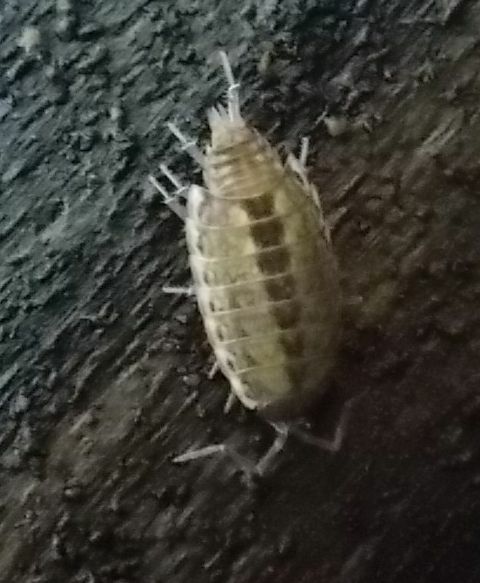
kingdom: Animalia
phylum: Arthropoda
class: Malacostraca
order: Isopoda
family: Philosciidae
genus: Philoscia
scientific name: Philoscia muscorum
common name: Common striped woodlouse
